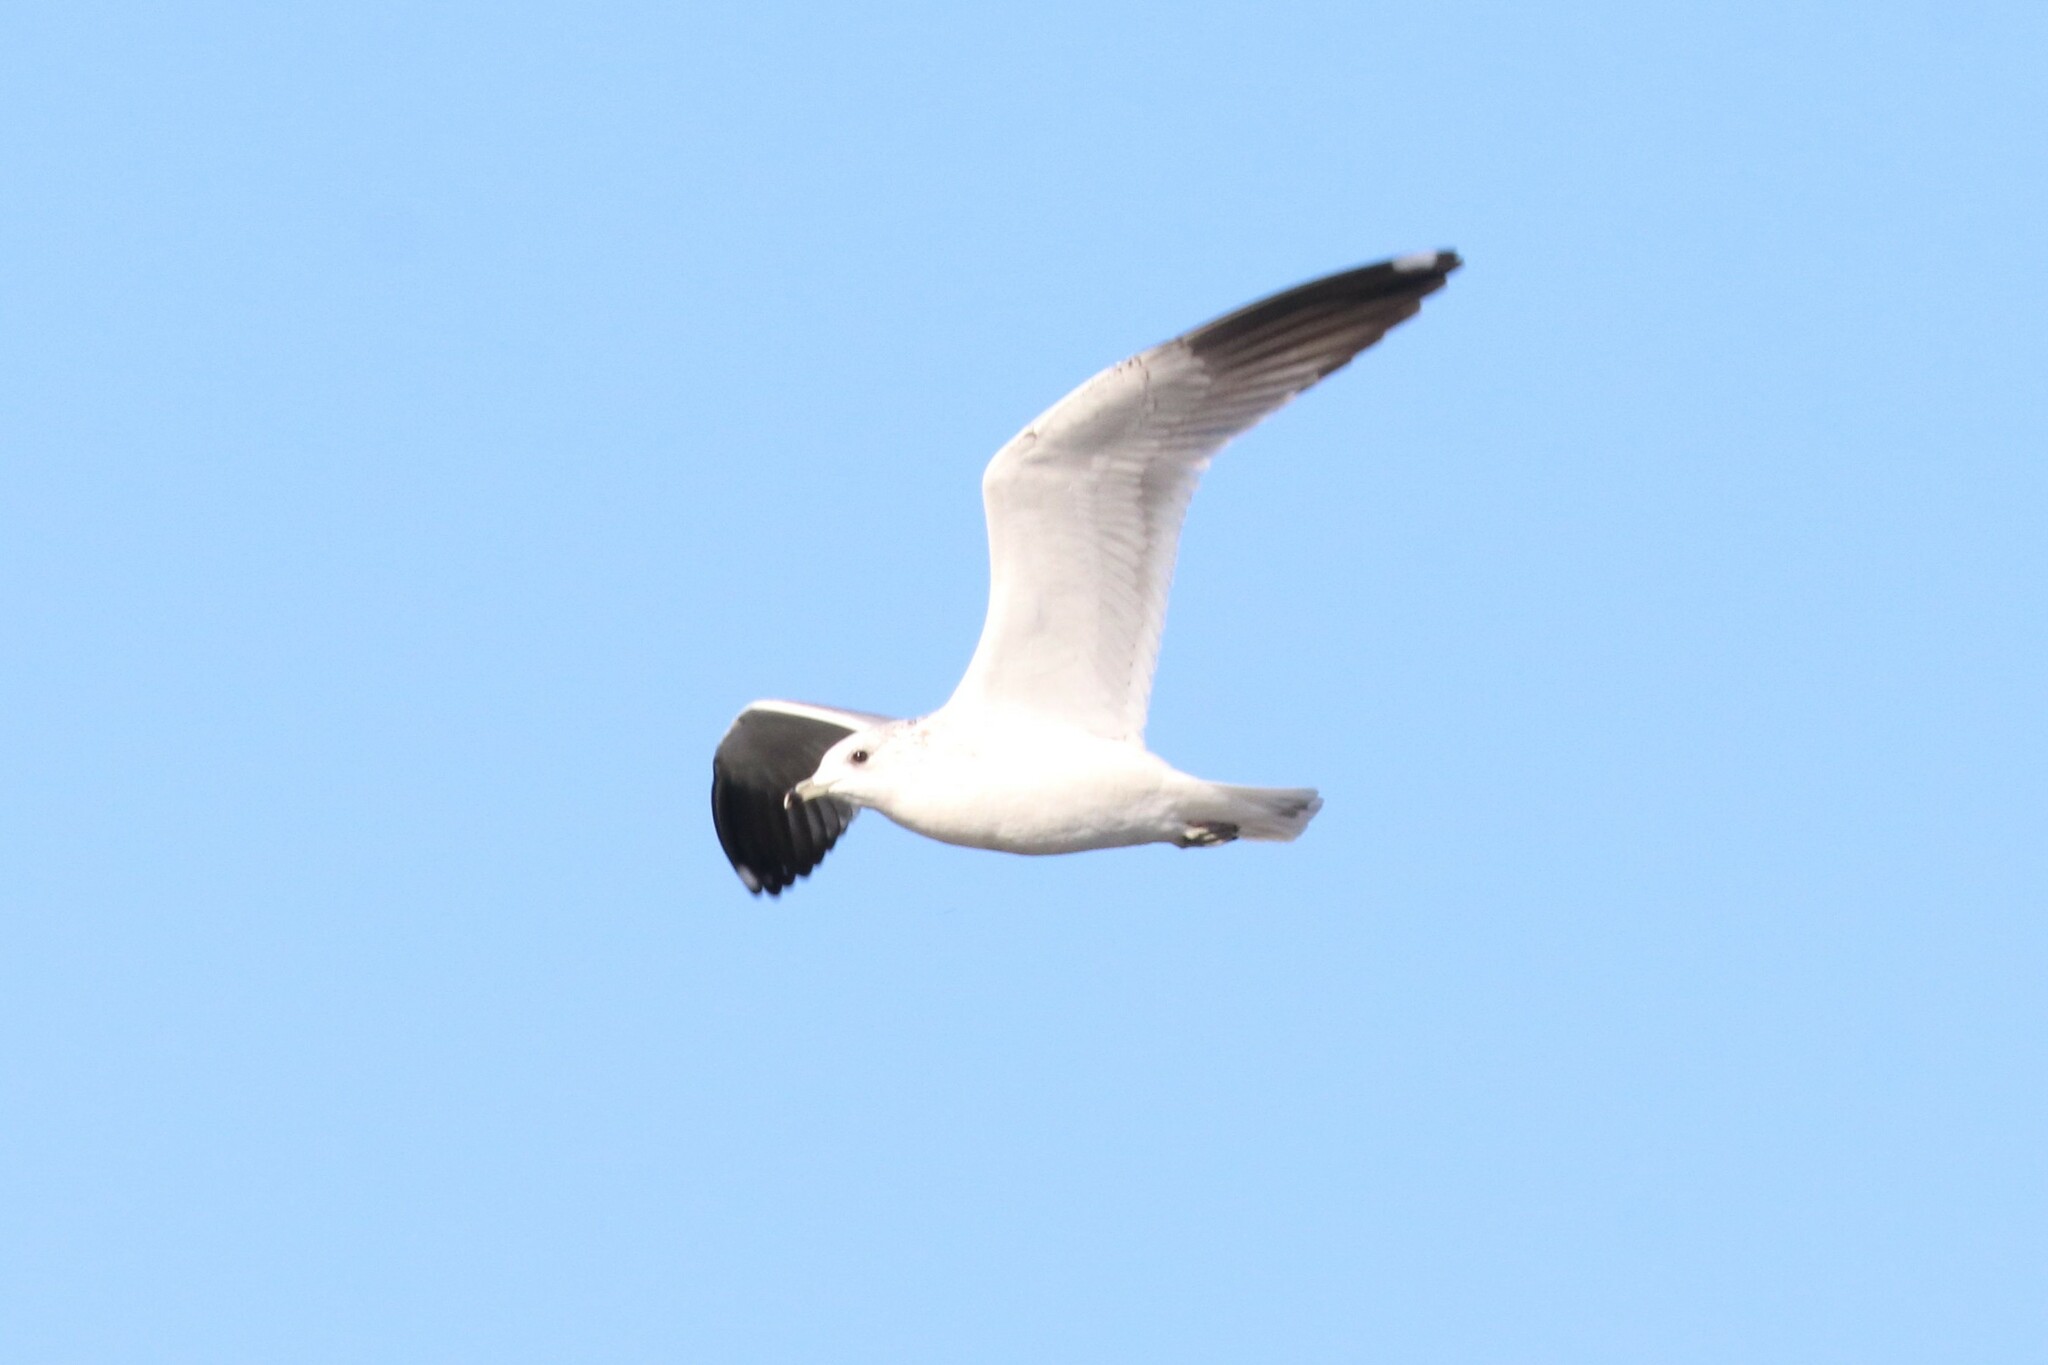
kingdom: Animalia
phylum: Chordata
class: Aves
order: Charadriiformes
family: Laridae
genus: Larus
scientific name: Larus canus
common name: Mew gull
